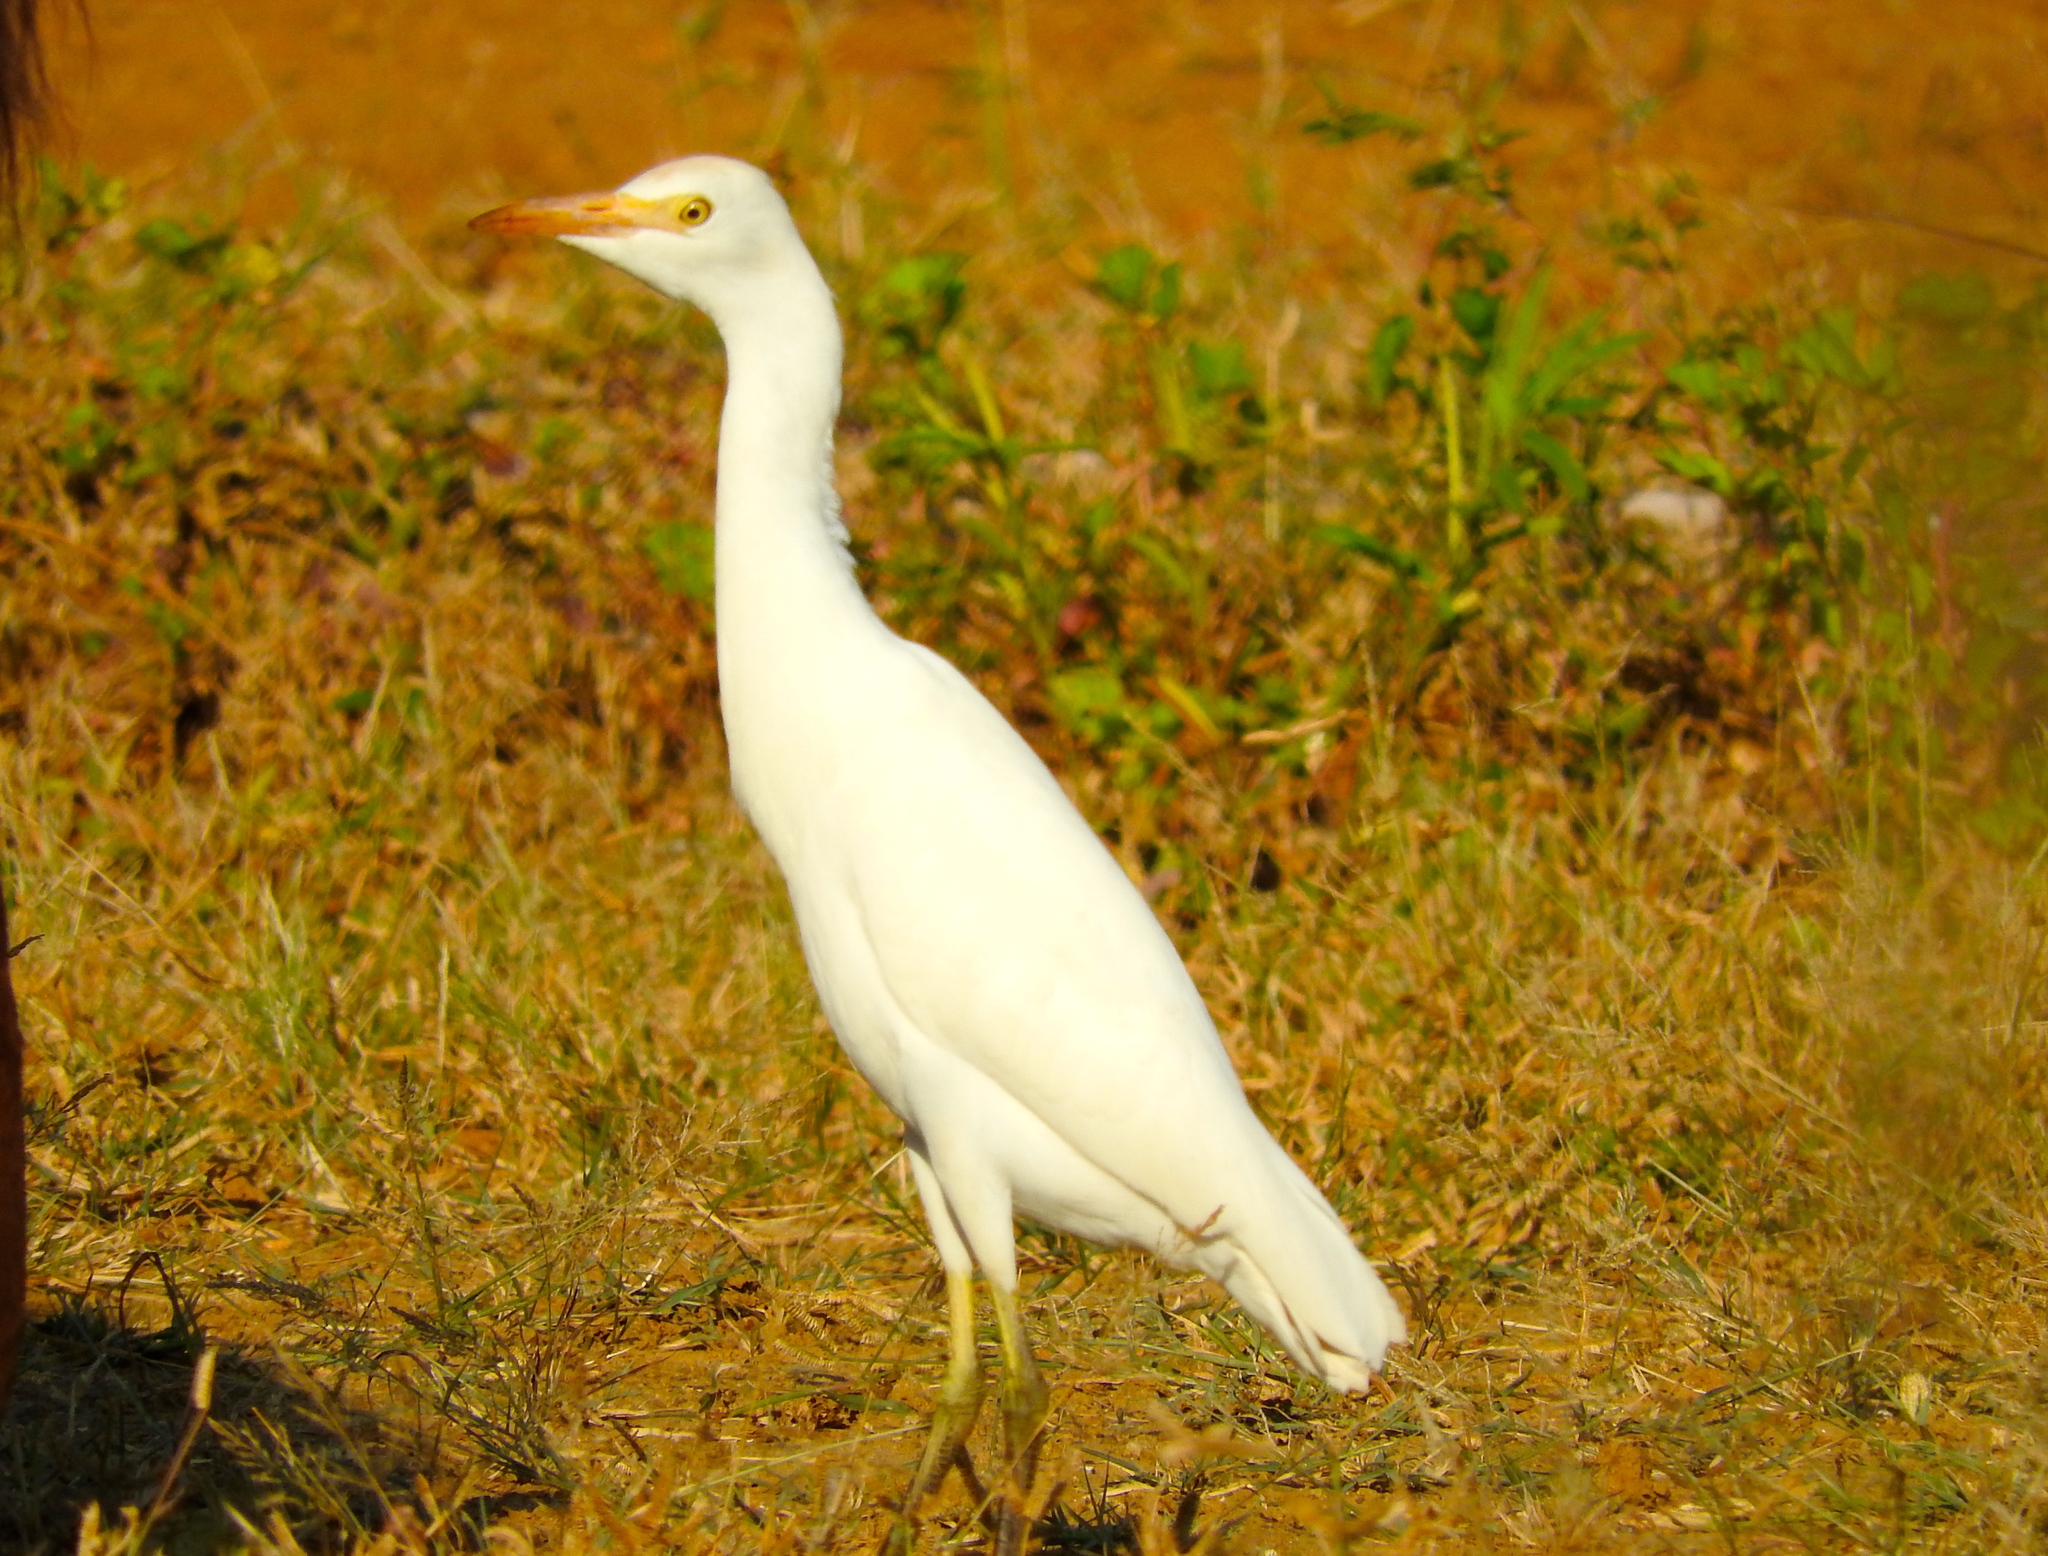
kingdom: Animalia
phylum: Chordata
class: Aves
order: Pelecaniformes
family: Ardeidae
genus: Bubulcus
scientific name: Bubulcus ibis
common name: Cattle egret
